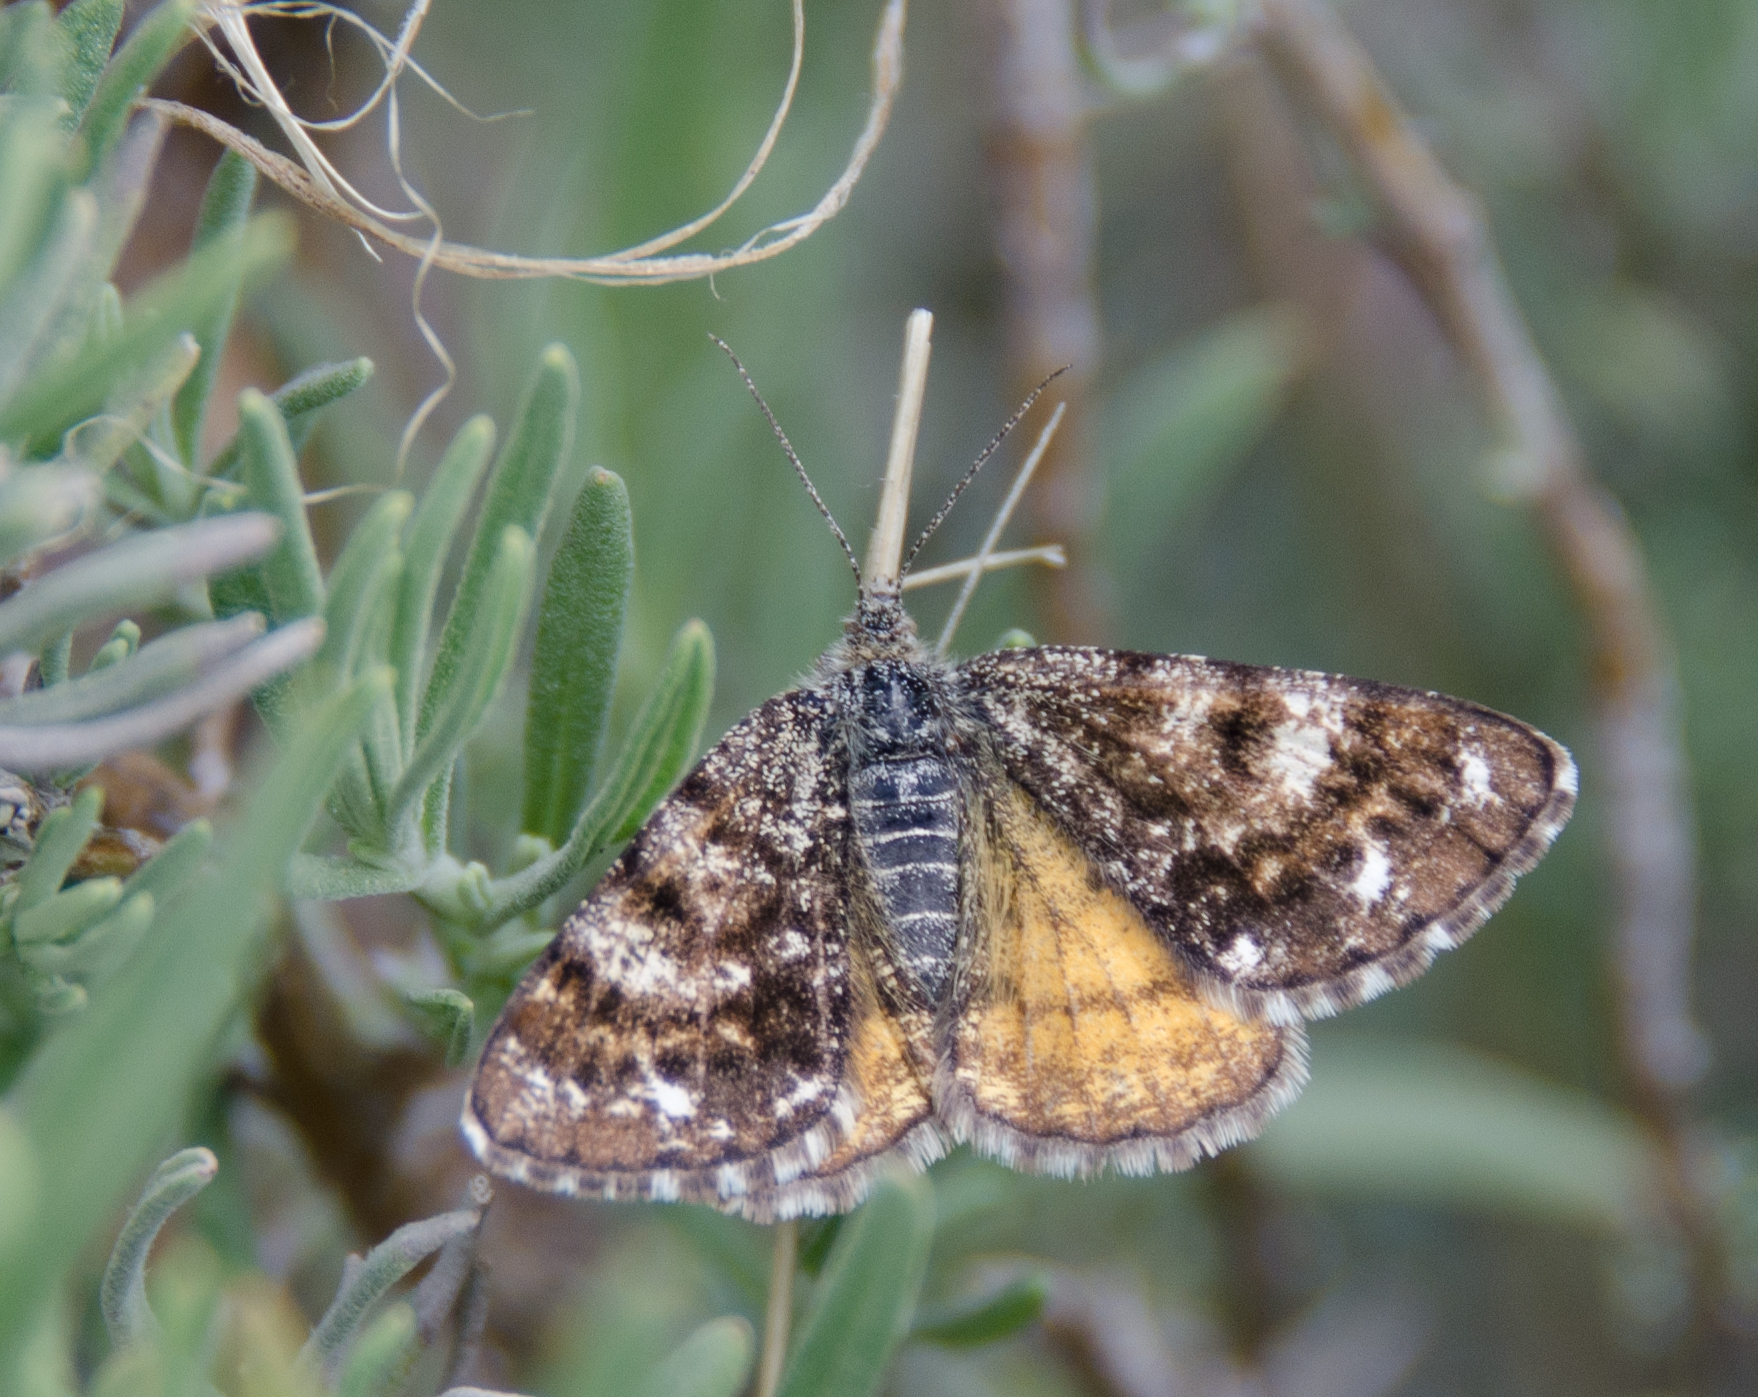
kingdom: Animalia
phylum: Arthropoda
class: Insecta
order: Lepidoptera
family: Geometridae
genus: Isturgia
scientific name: Isturgia famula
